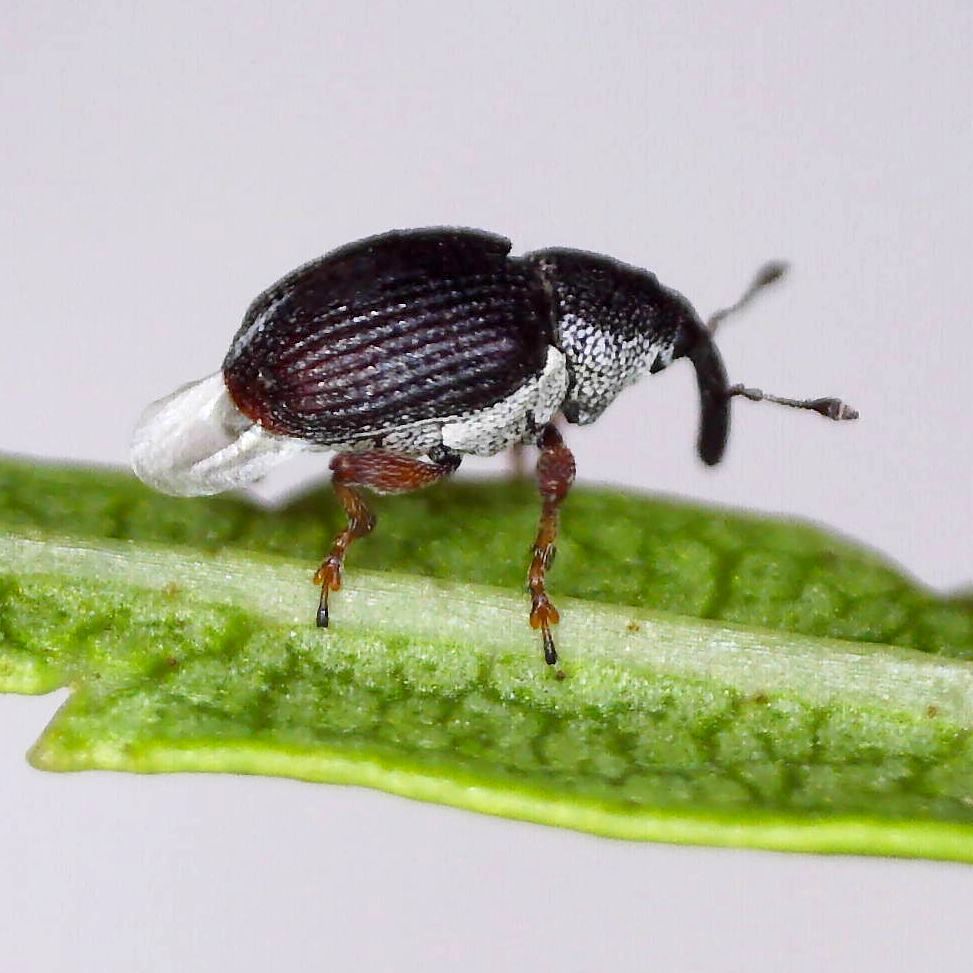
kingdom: Animalia
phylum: Arthropoda
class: Insecta
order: Coleoptera
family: Curculionidae
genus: Amalus
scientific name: Amalus scortillum
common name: Weevil
